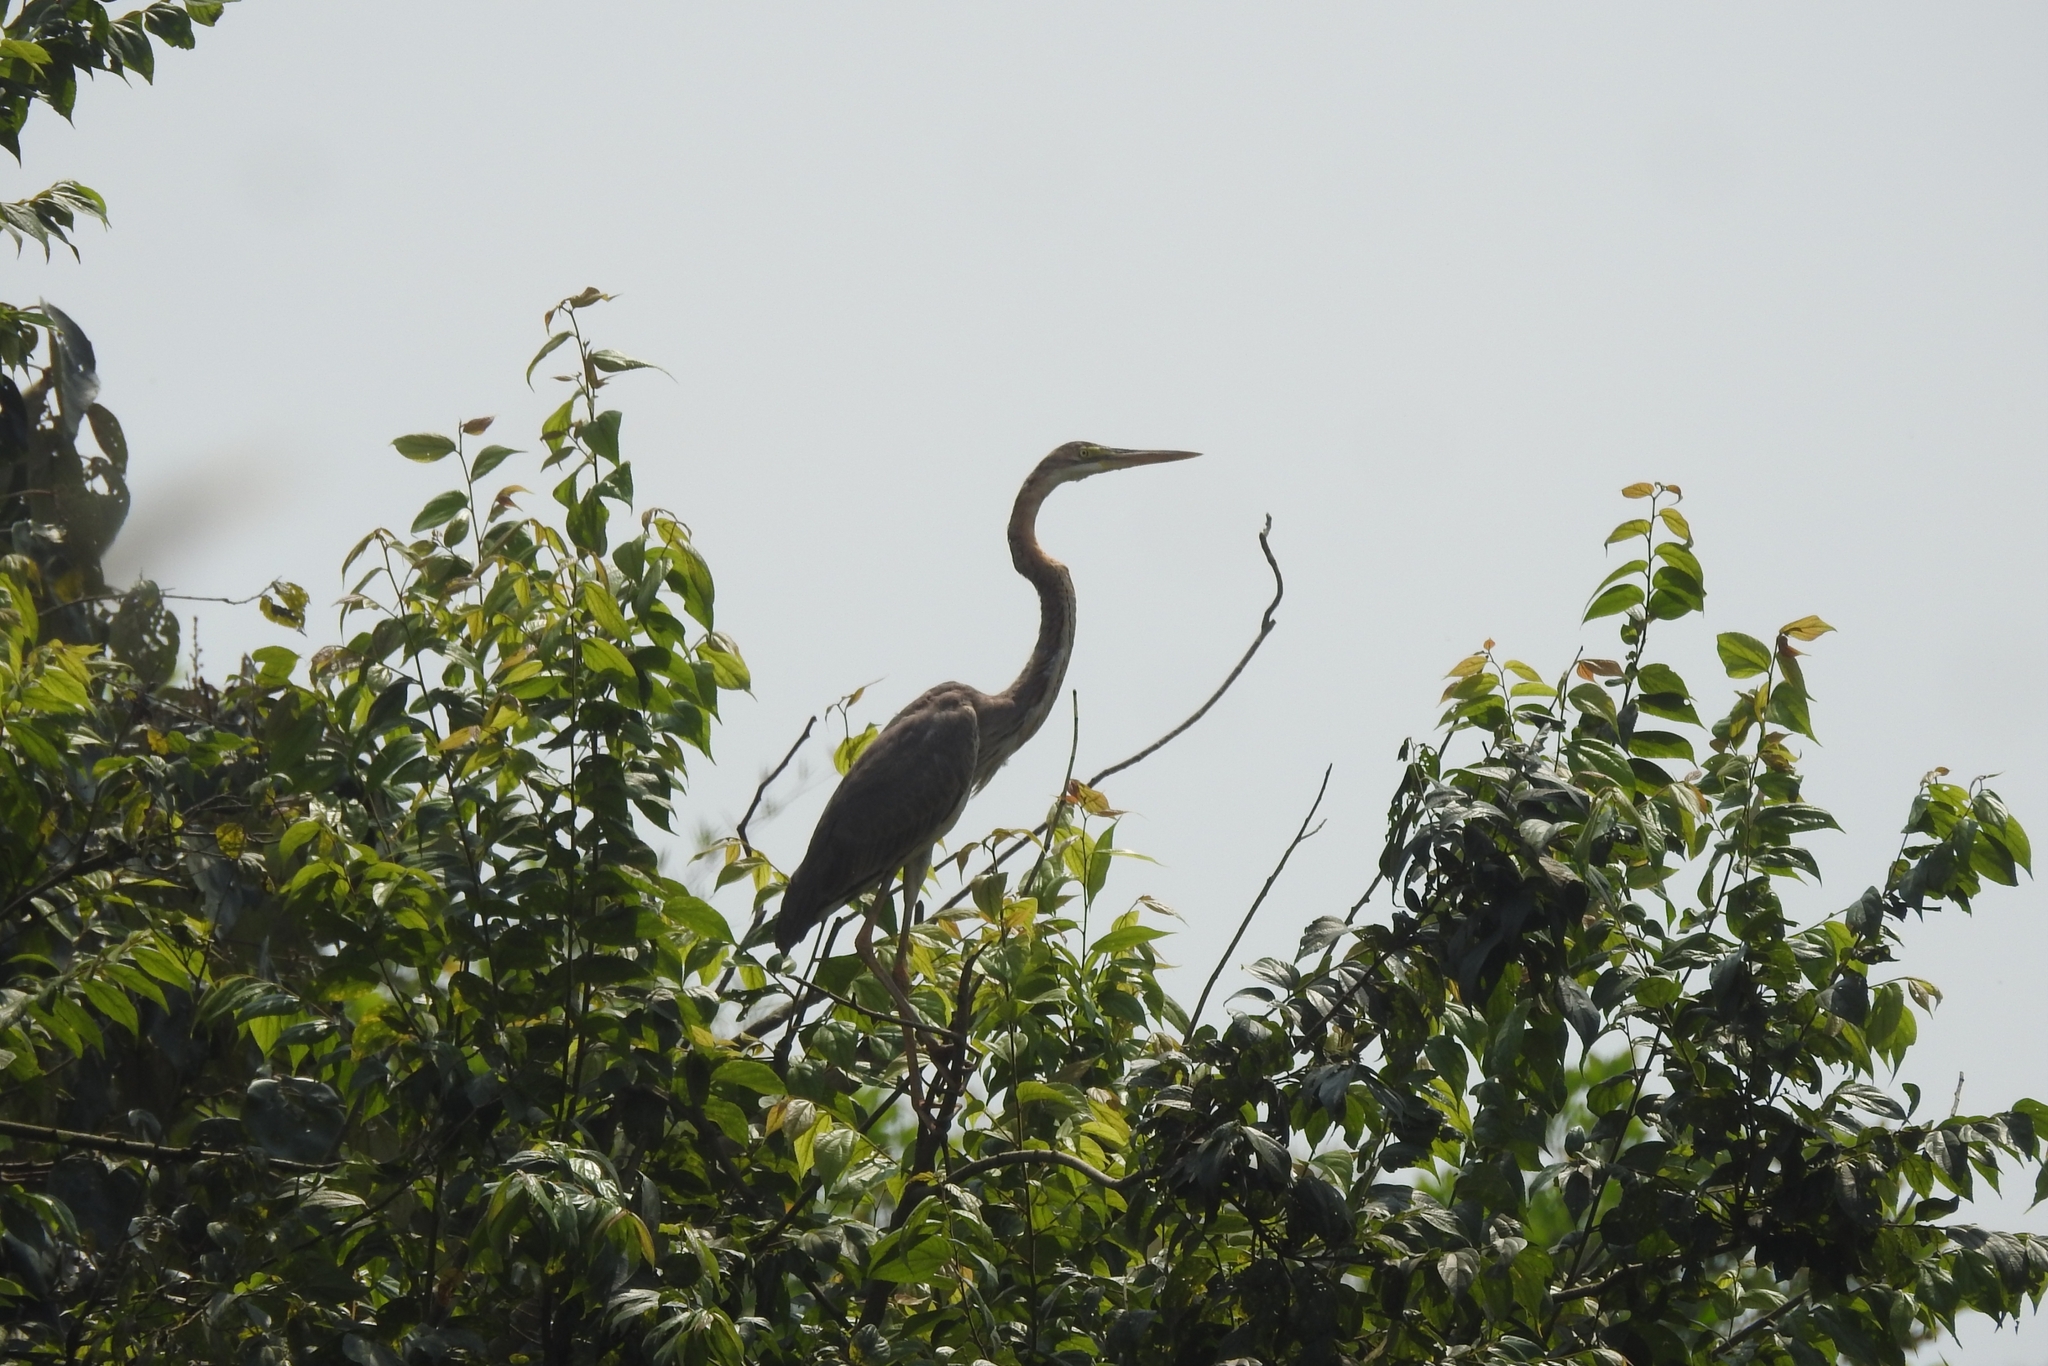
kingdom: Animalia
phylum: Chordata
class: Aves
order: Pelecaniformes
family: Ardeidae
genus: Ardea
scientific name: Ardea purpurea
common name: Purple heron
